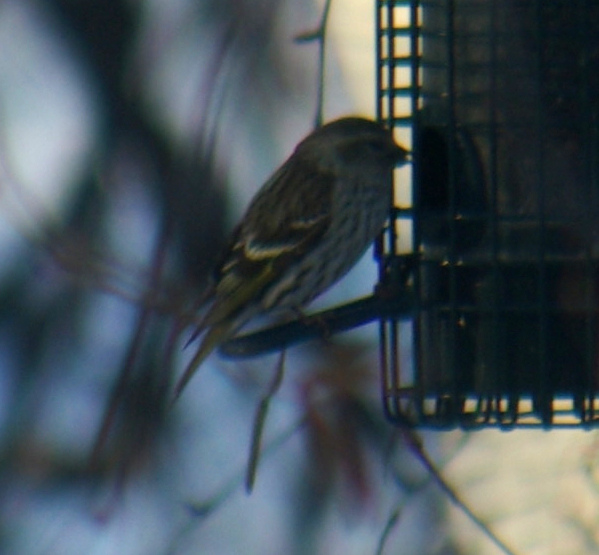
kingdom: Animalia
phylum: Chordata
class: Aves
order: Passeriformes
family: Fringillidae
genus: Spinus
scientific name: Spinus pinus
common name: Pine siskin
